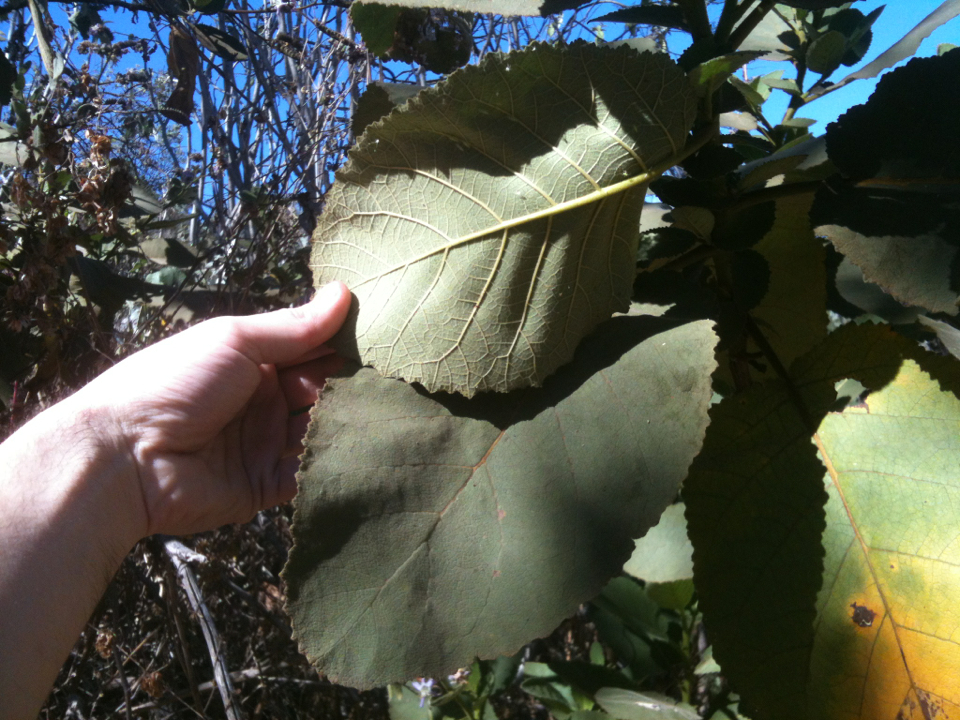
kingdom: Plantae
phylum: Tracheophyta
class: Magnoliopsida
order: Boraginales
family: Namaceae
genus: Wigandia
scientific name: Wigandia urens
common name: Caracus wigandia
